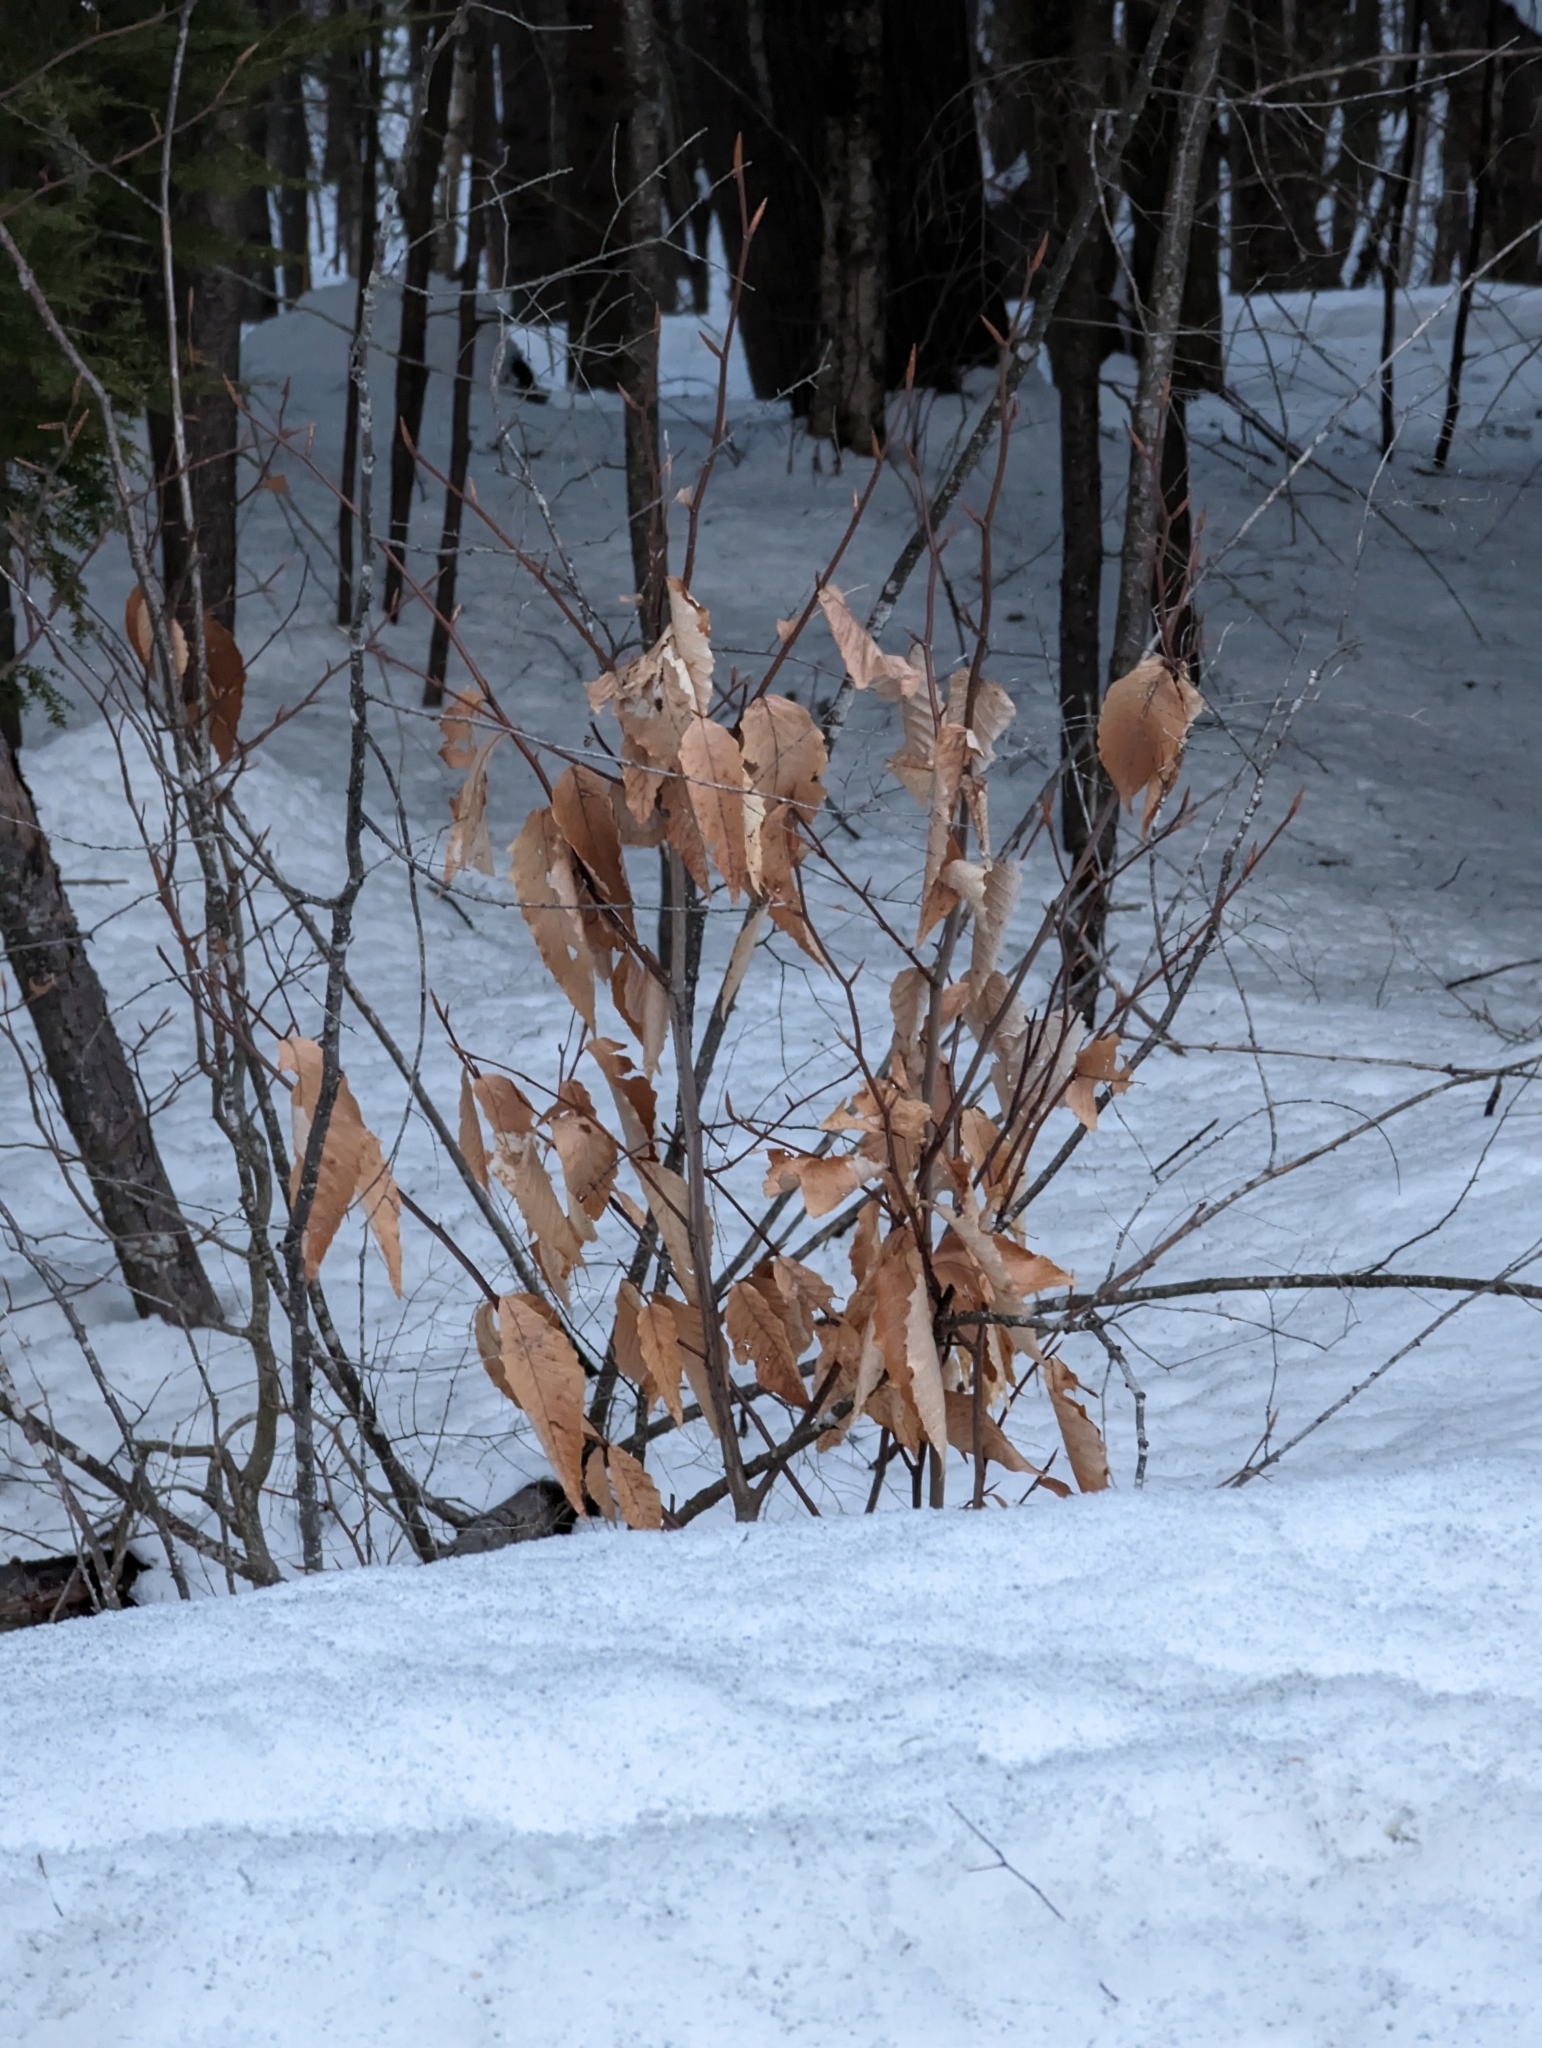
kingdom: Plantae
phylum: Tracheophyta
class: Magnoliopsida
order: Fagales
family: Fagaceae
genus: Fagus
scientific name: Fagus grandifolia
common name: American beech
